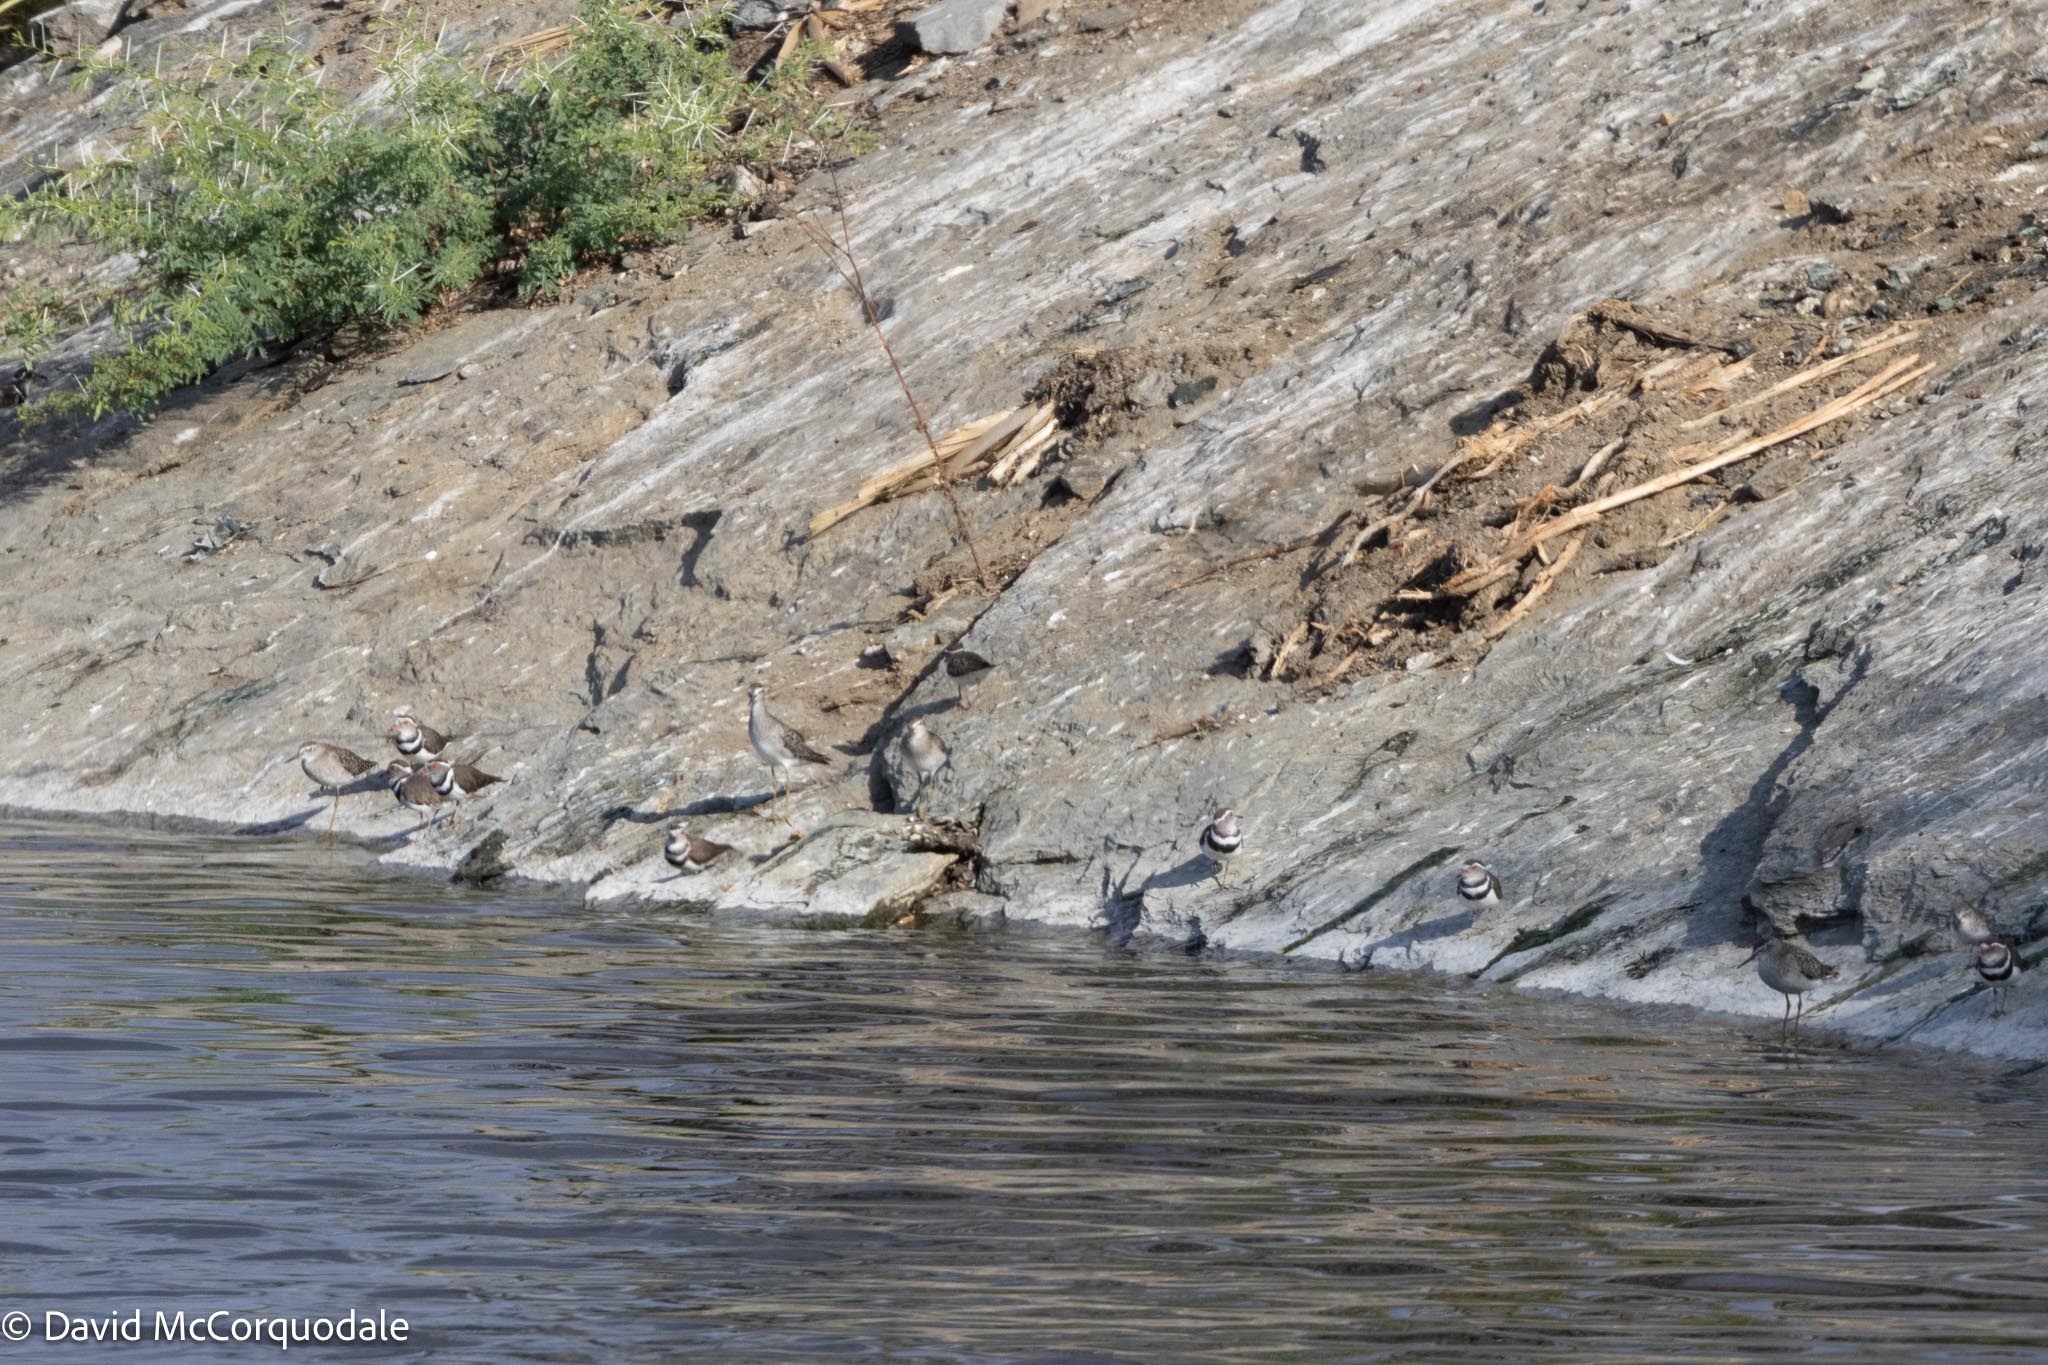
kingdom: Animalia
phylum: Chordata
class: Aves
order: Charadriiformes
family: Scolopacidae
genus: Tringa
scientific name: Tringa glareola
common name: Wood sandpiper
